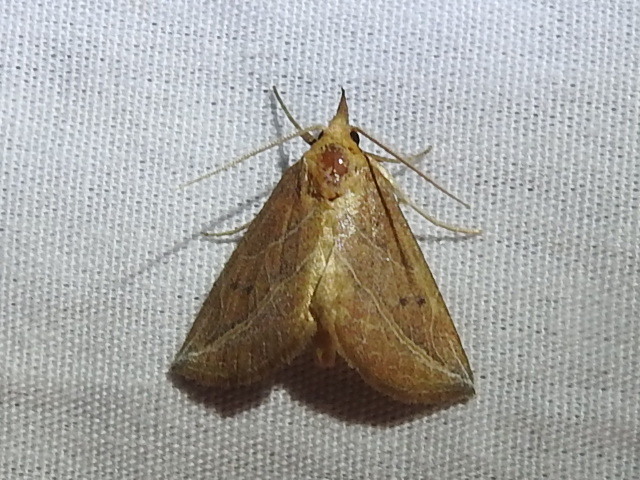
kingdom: Animalia
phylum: Arthropoda
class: Insecta
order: Lepidoptera
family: Erebidae
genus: Phyprosopus
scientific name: Phyprosopus callitrichoides
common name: Curved-lined owlet
